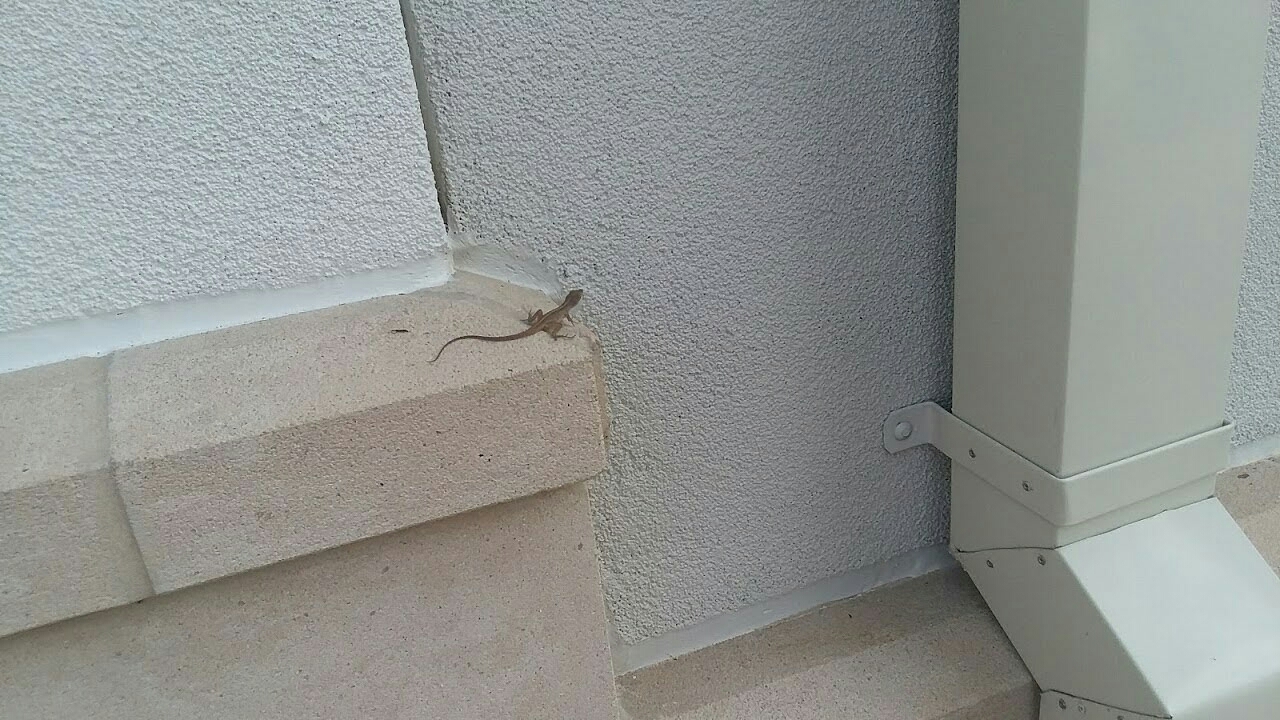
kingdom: Animalia
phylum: Chordata
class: Squamata
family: Dactyloidae
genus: Anolis
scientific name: Anolis sagrei
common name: Brown anole
